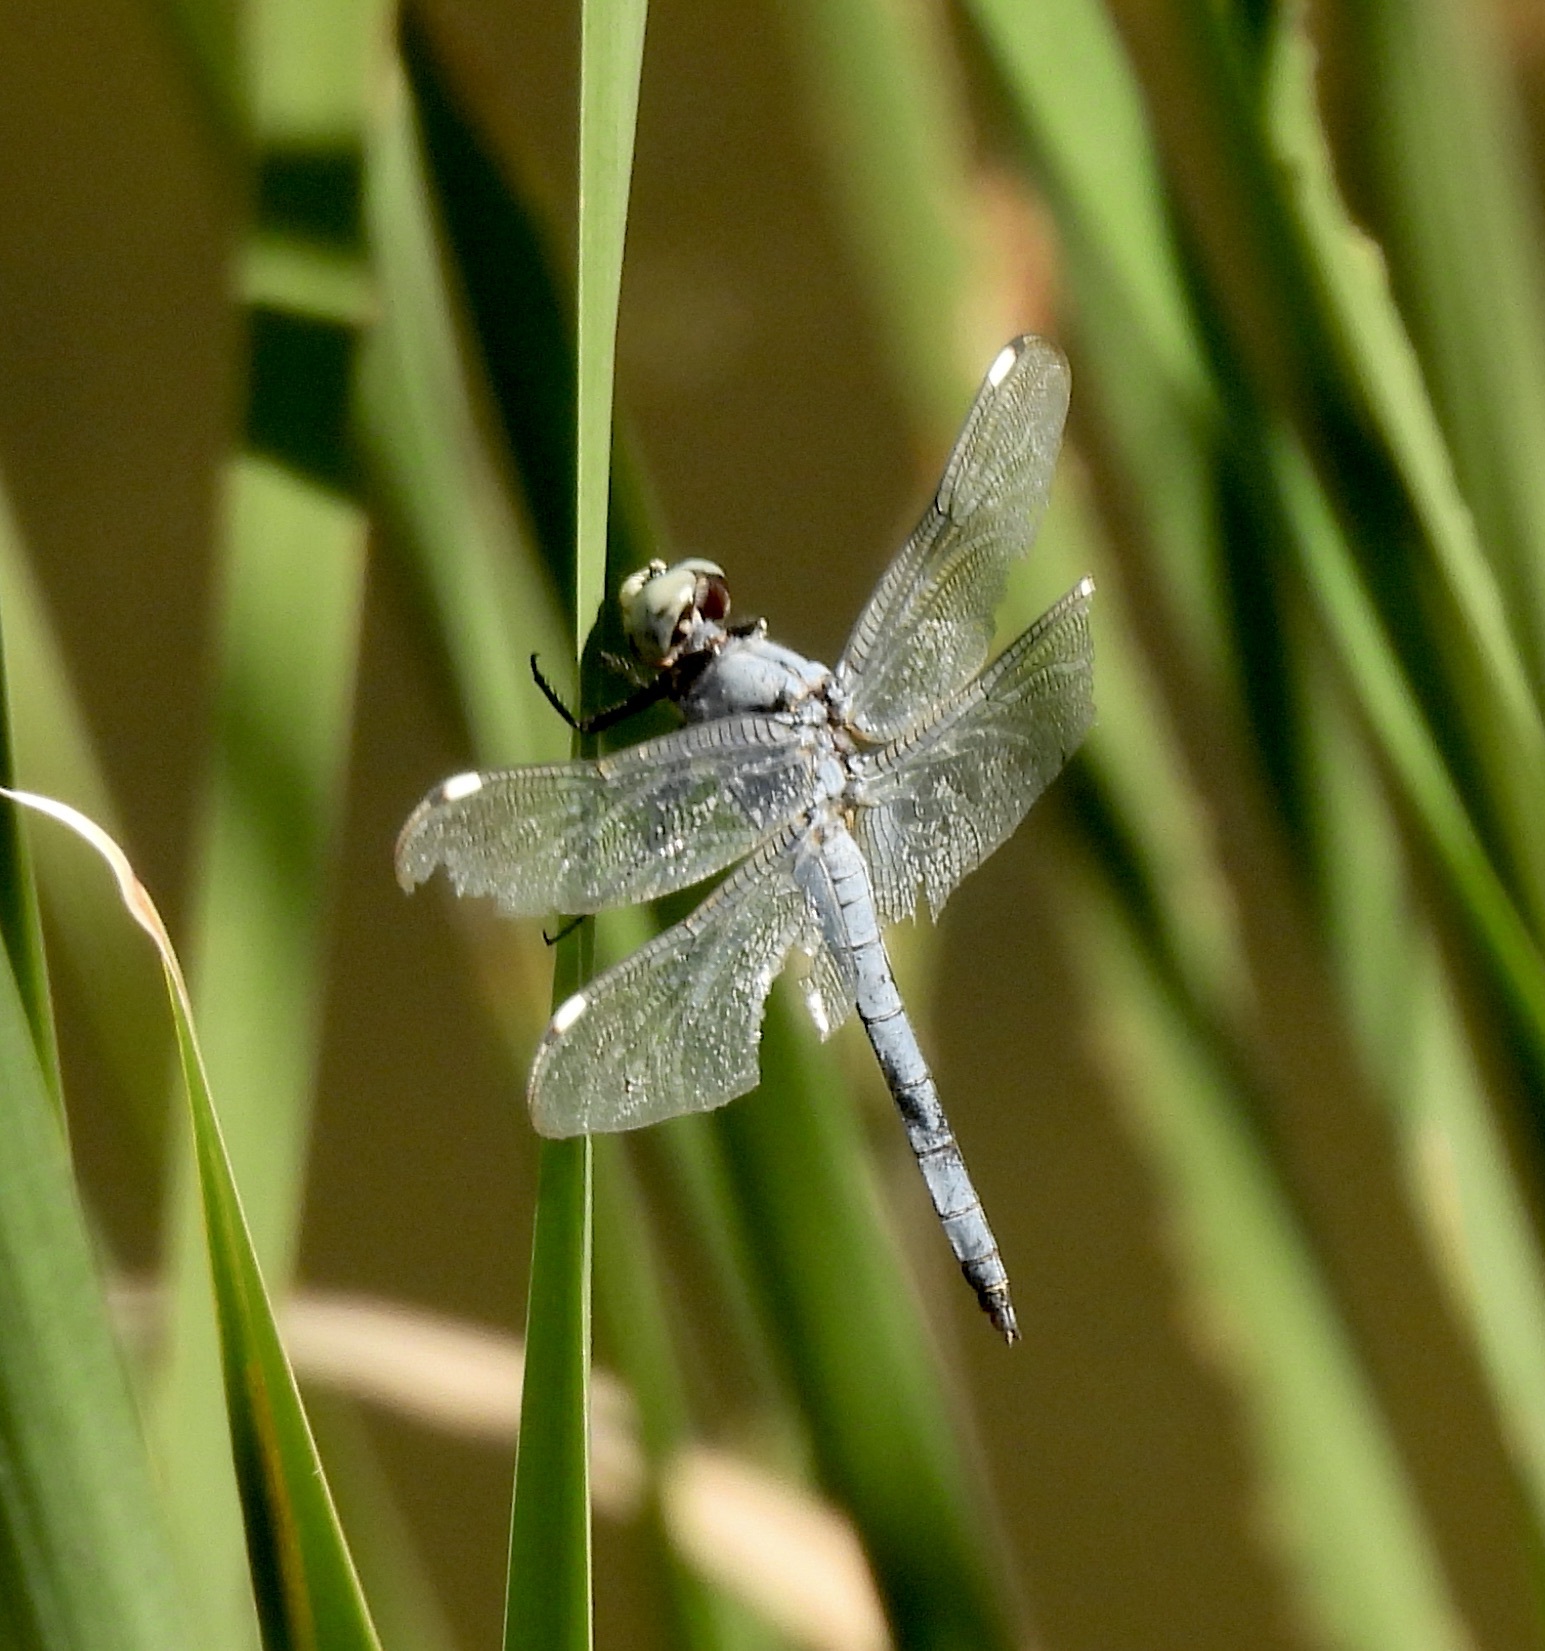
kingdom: Animalia
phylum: Arthropoda
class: Insecta
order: Odonata
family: Libellulidae
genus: Libellula
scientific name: Libellula comanche
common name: Comanche skimmer
